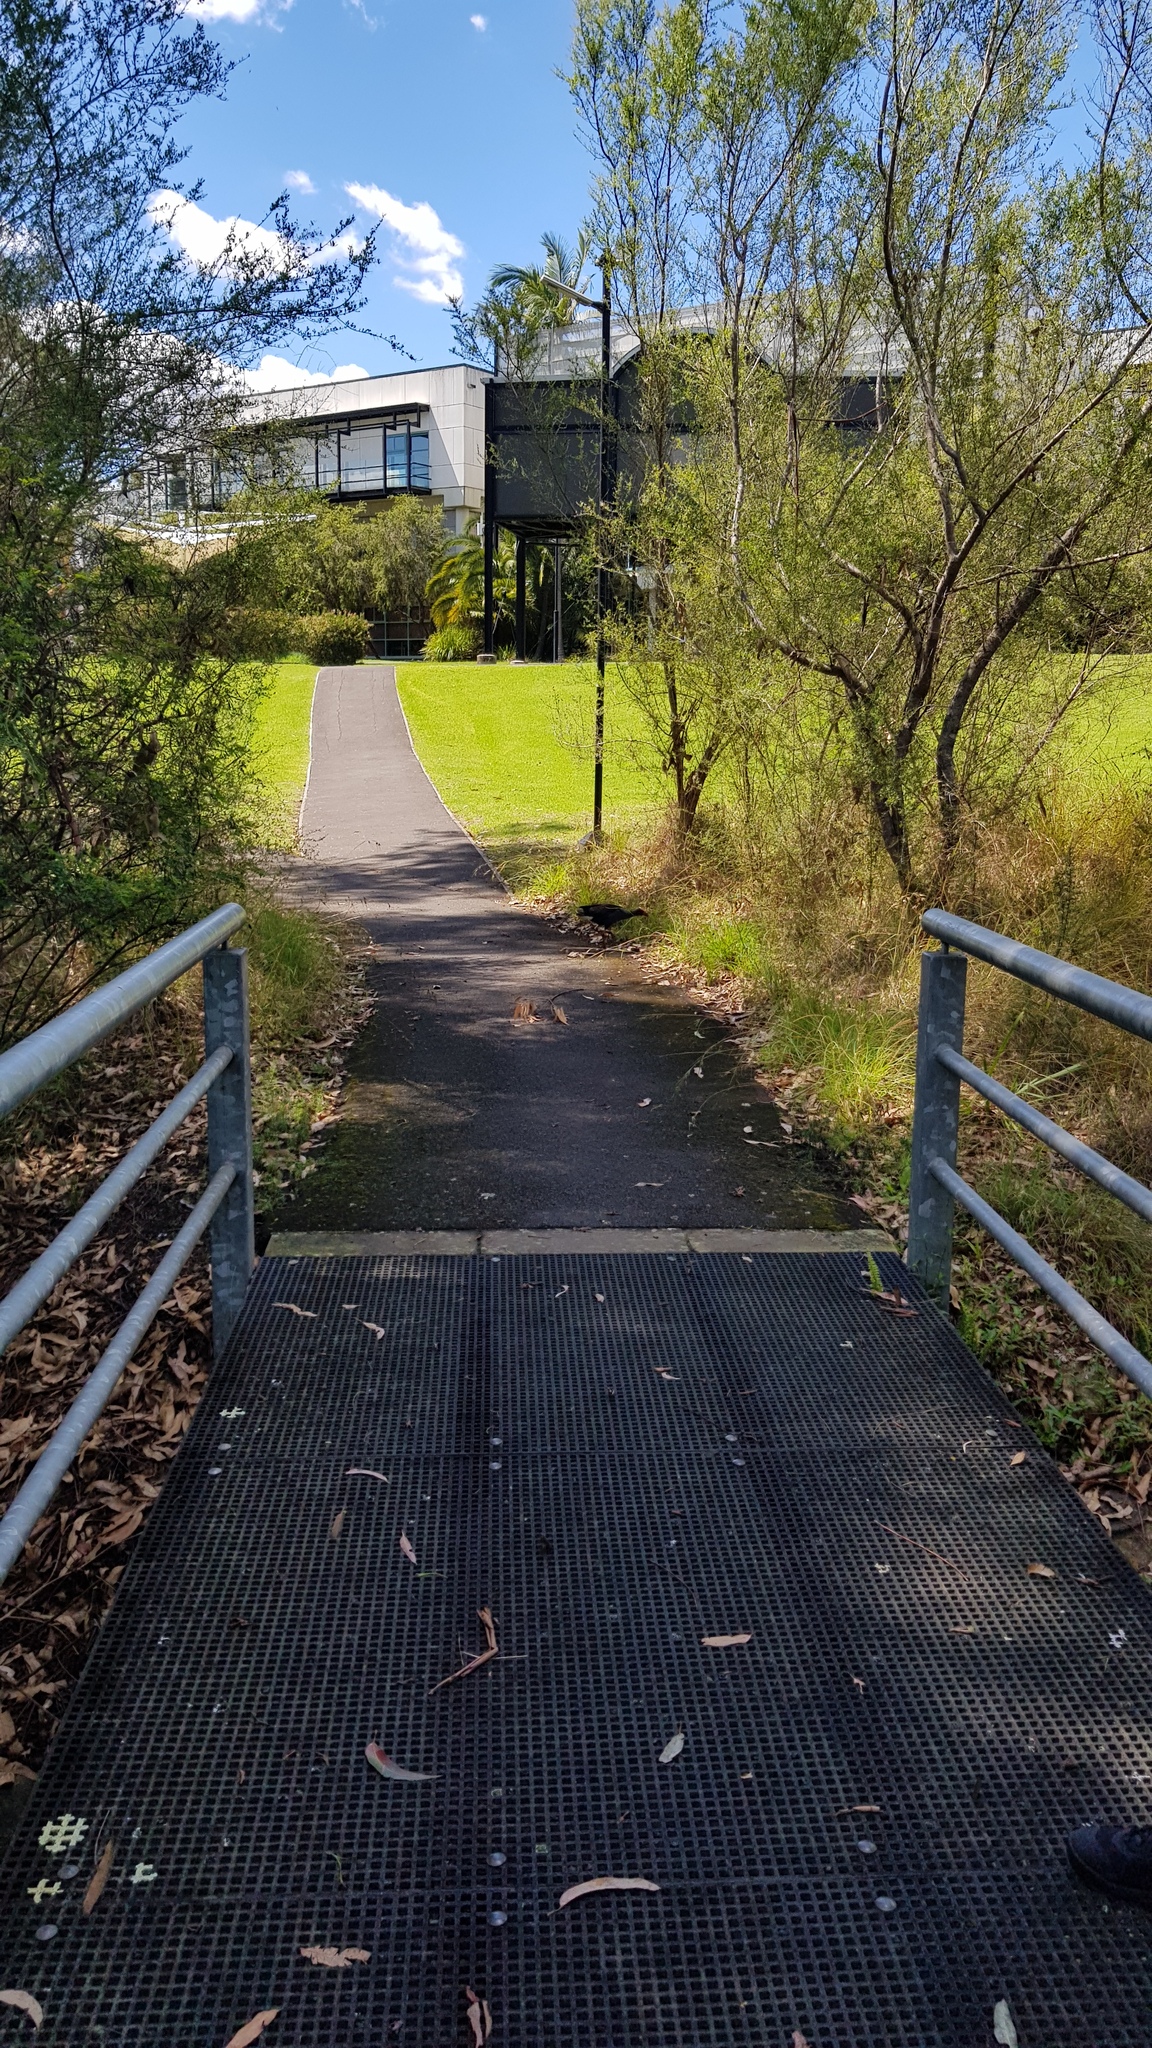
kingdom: Animalia
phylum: Chordata
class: Aves
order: Gruiformes
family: Rallidae
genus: Porphyrio
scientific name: Porphyrio melanotus
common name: Australasian swamphen
